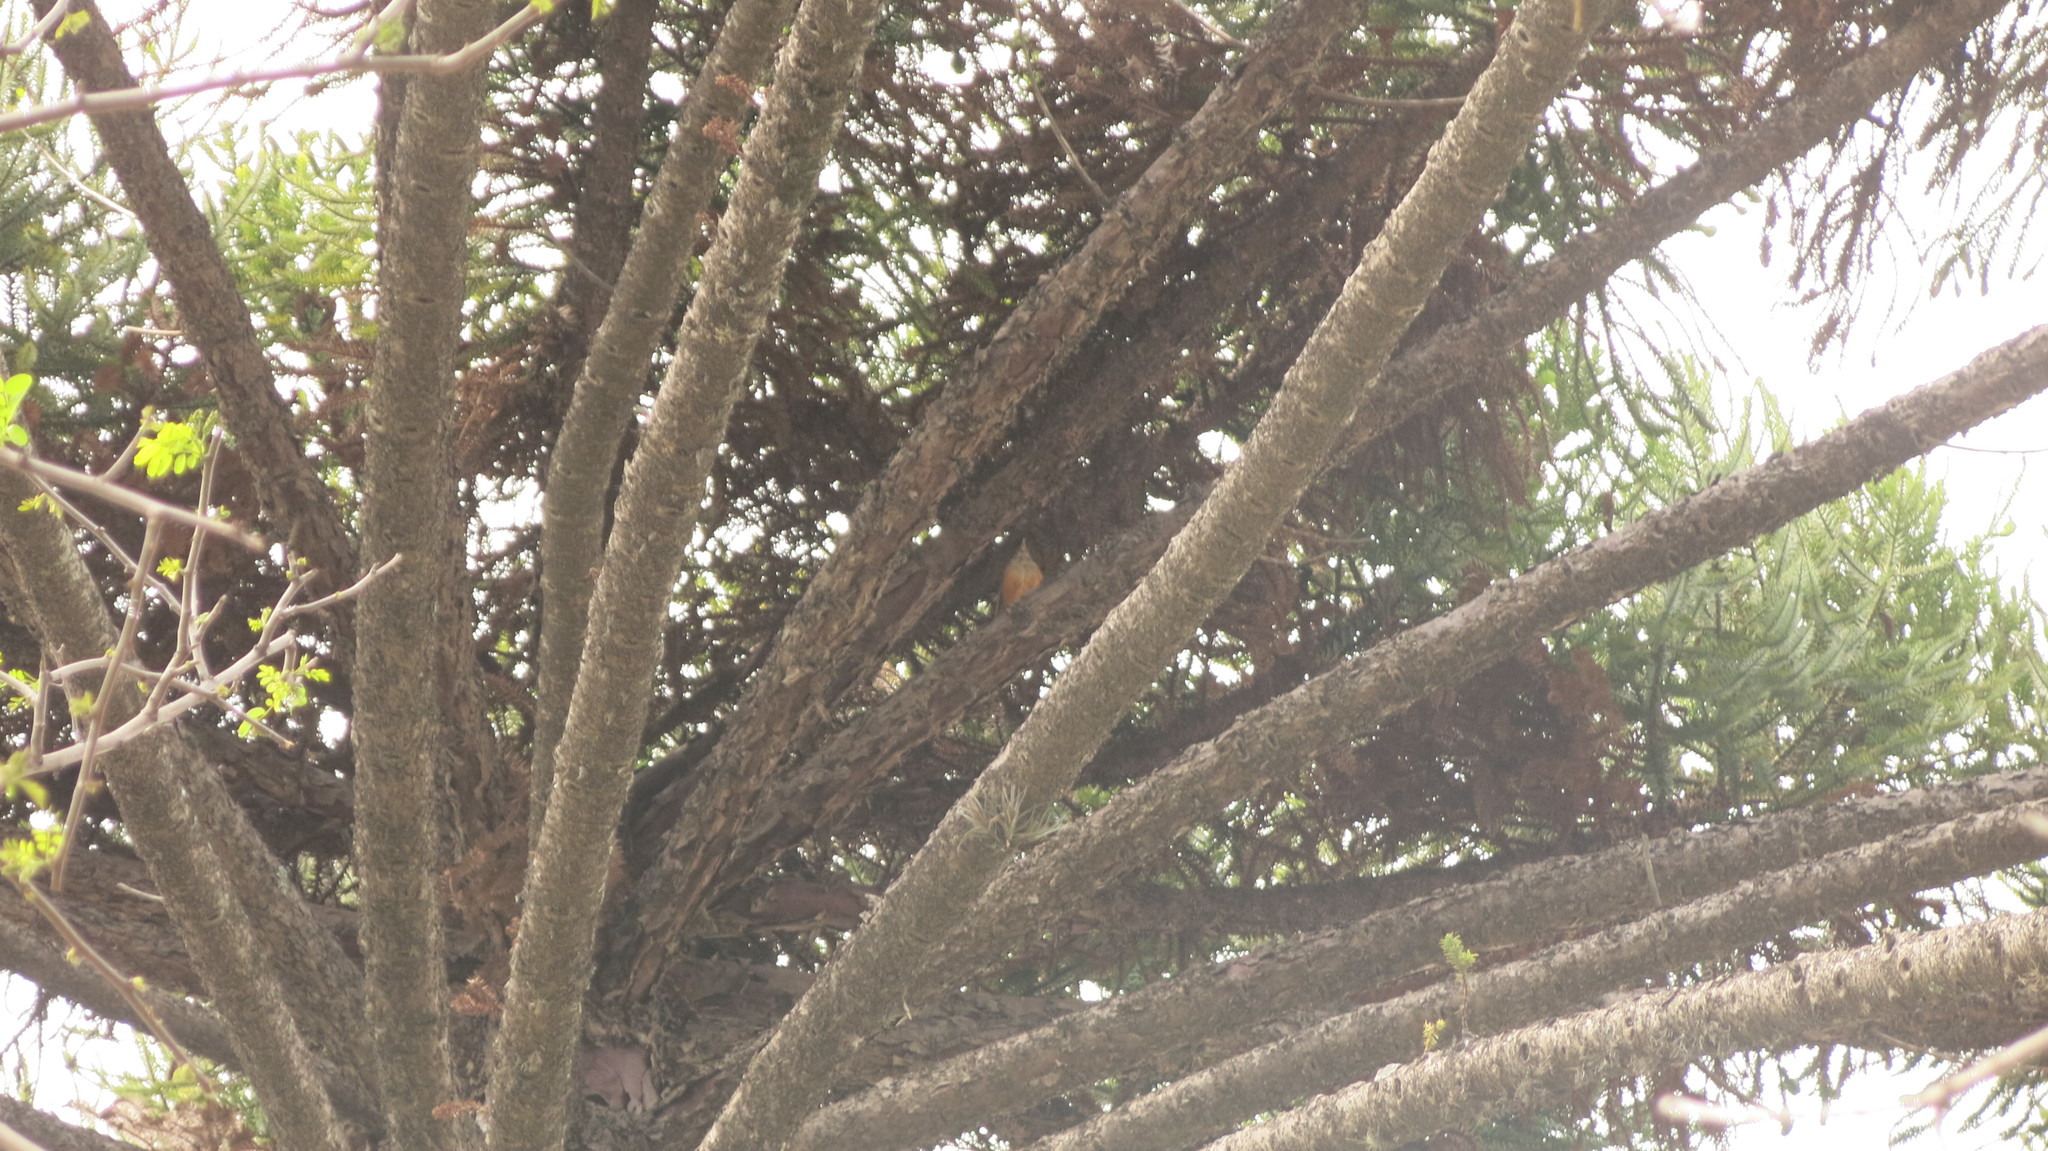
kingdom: Animalia
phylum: Chordata
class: Aves
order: Passeriformes
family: Turdidae
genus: Turdus
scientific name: Turdus rufiventris
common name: Rufous-bellied thrush
